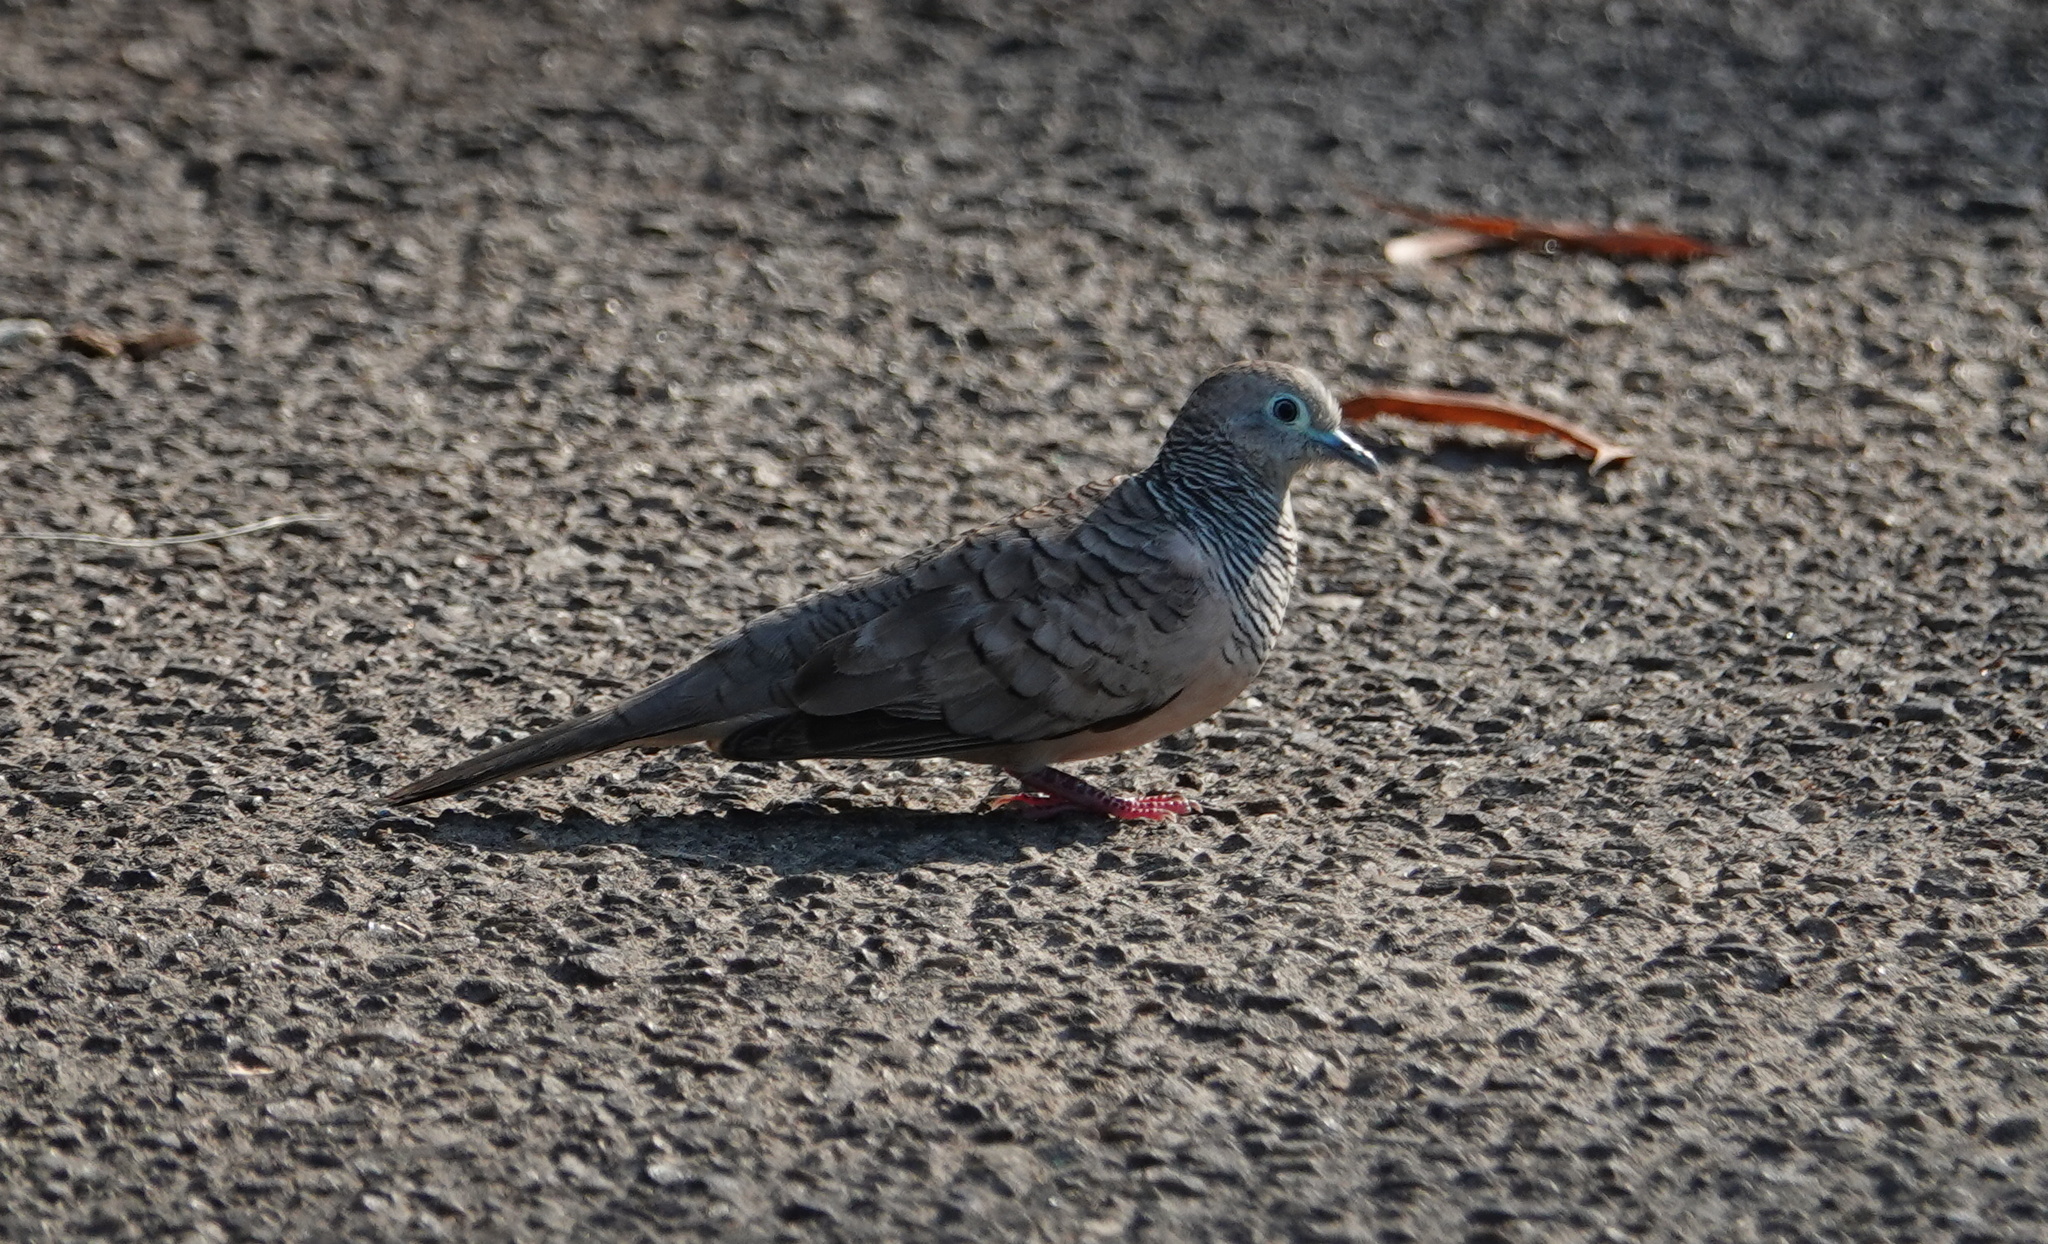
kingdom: Animalia
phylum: Chordata
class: Aves
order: Columbiformes
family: Columbidae
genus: Geopelia
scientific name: Geopelia placida
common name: Peaceful dove
